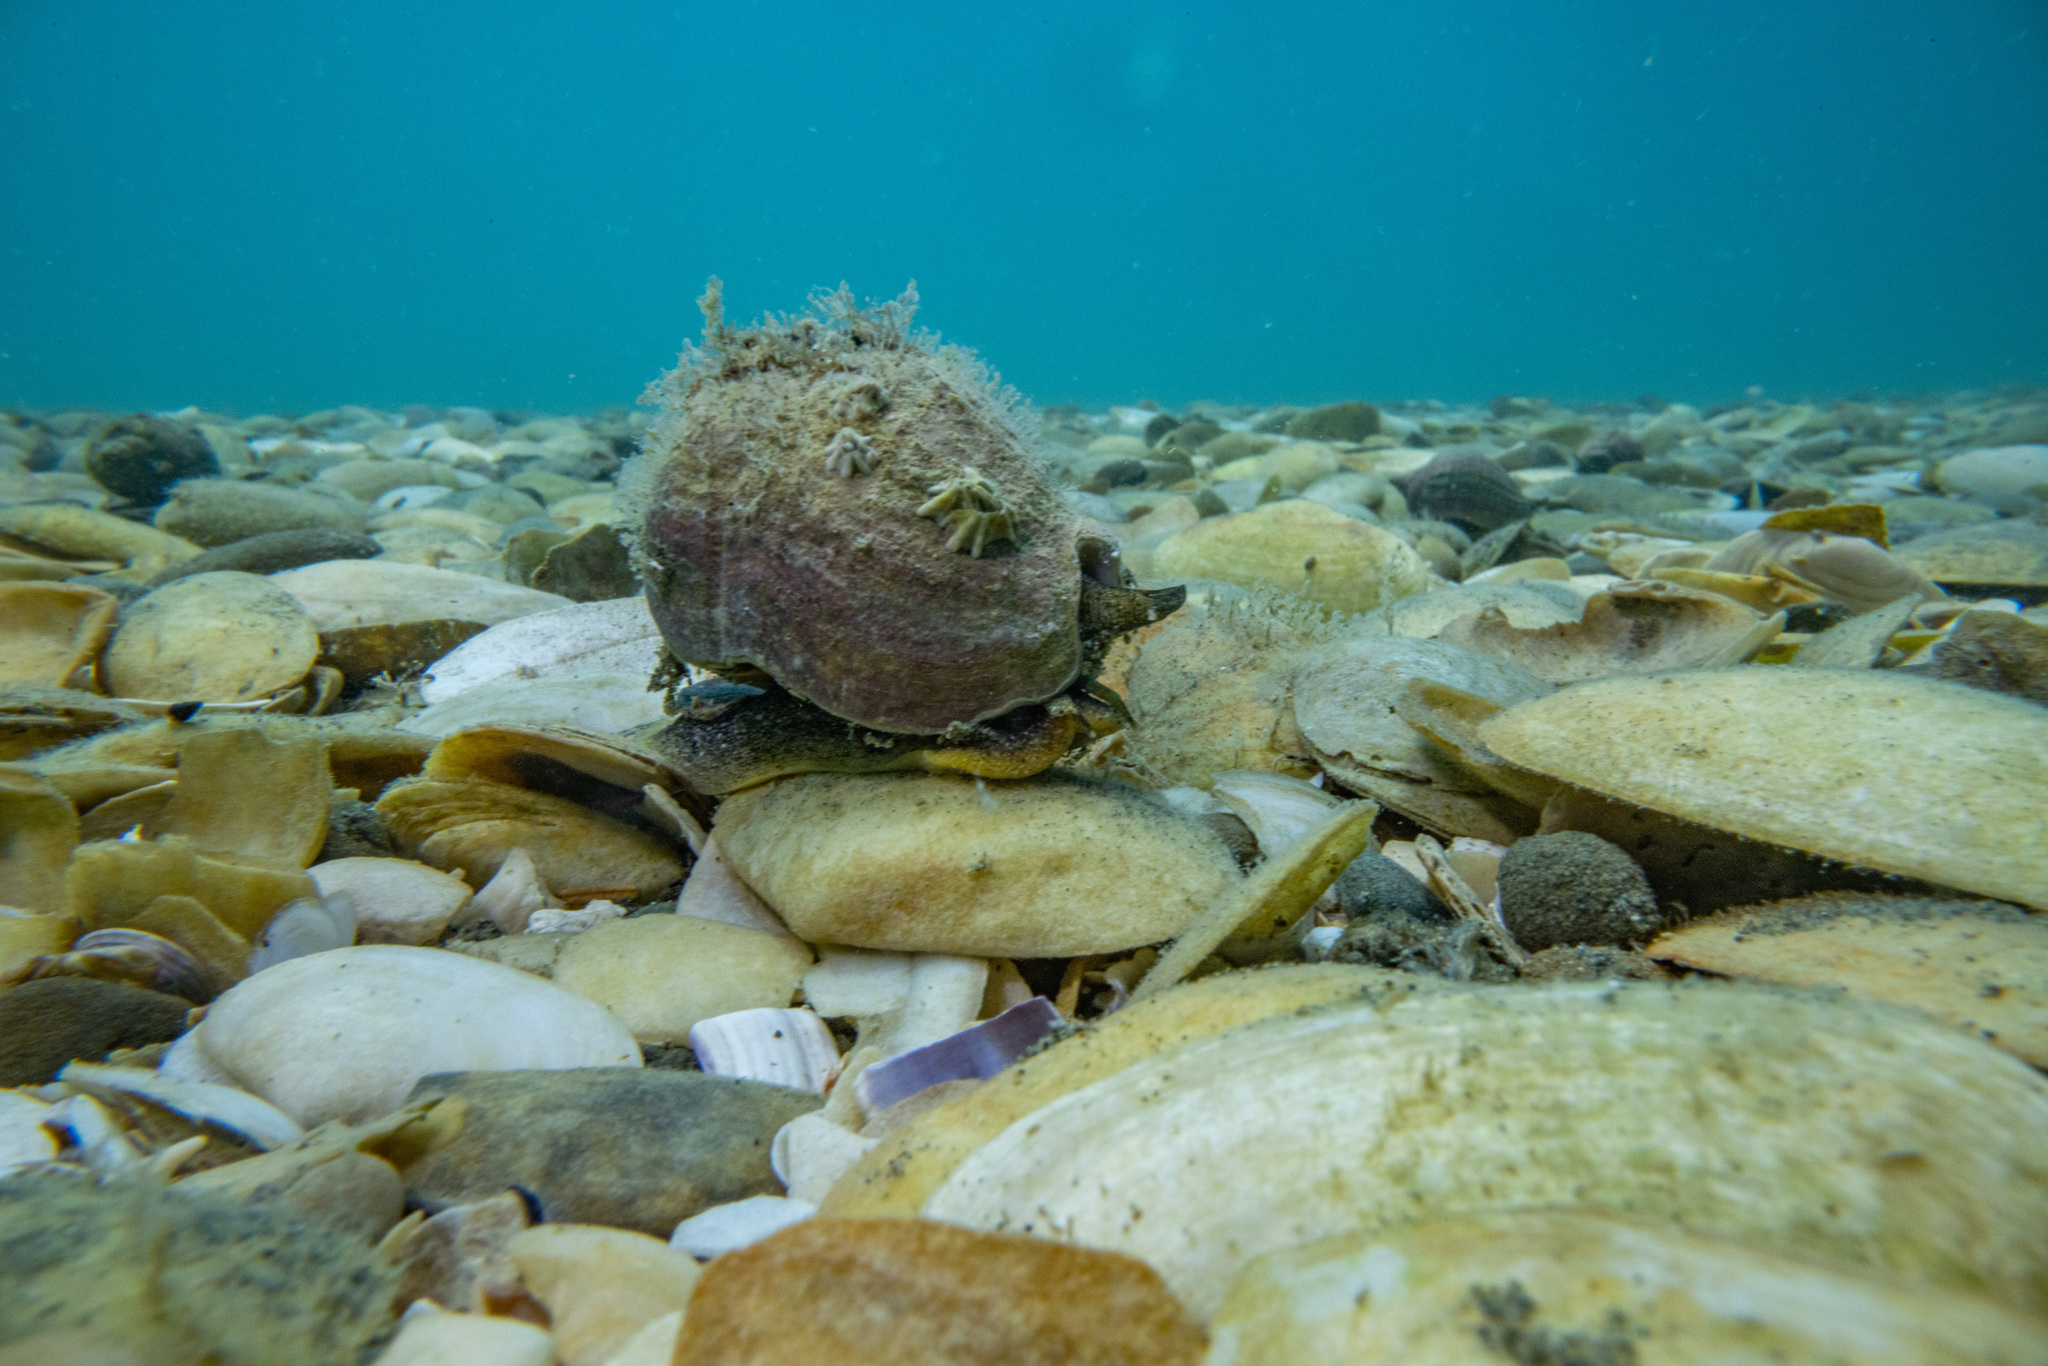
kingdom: Animalia
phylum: Mollusca
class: Gastropoda
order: Neogastropoda
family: Cominellidae
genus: Cominella
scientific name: Cominella adspersa
